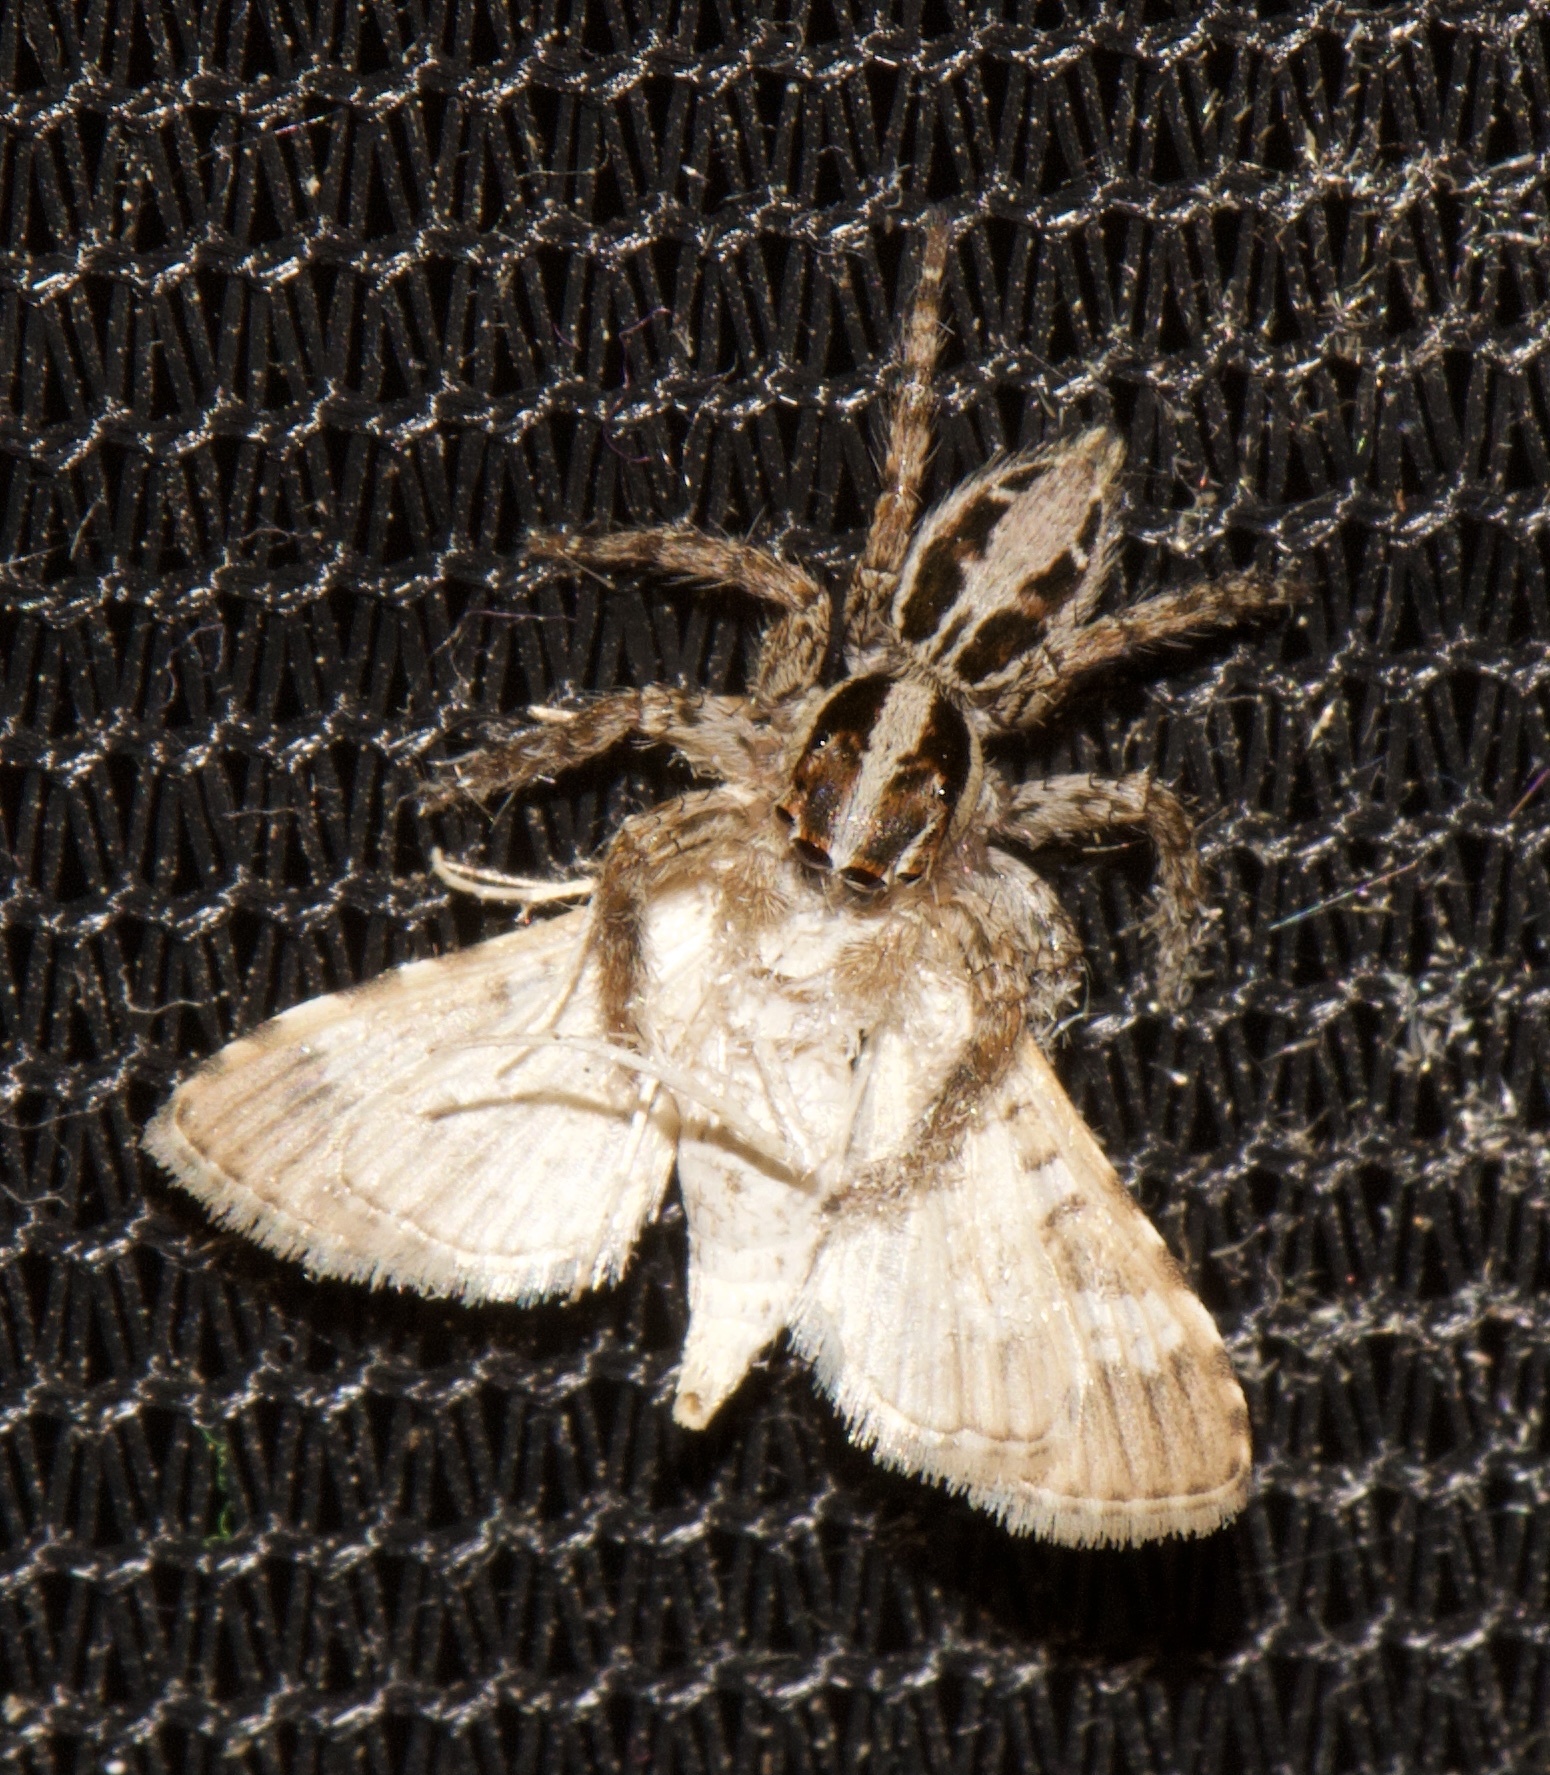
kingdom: Animalia
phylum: Arthropoda
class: Arachnida
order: Araneae
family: Salticidae
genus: Plexippus
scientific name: Plexippus paykulli
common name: Pantropical jumper
